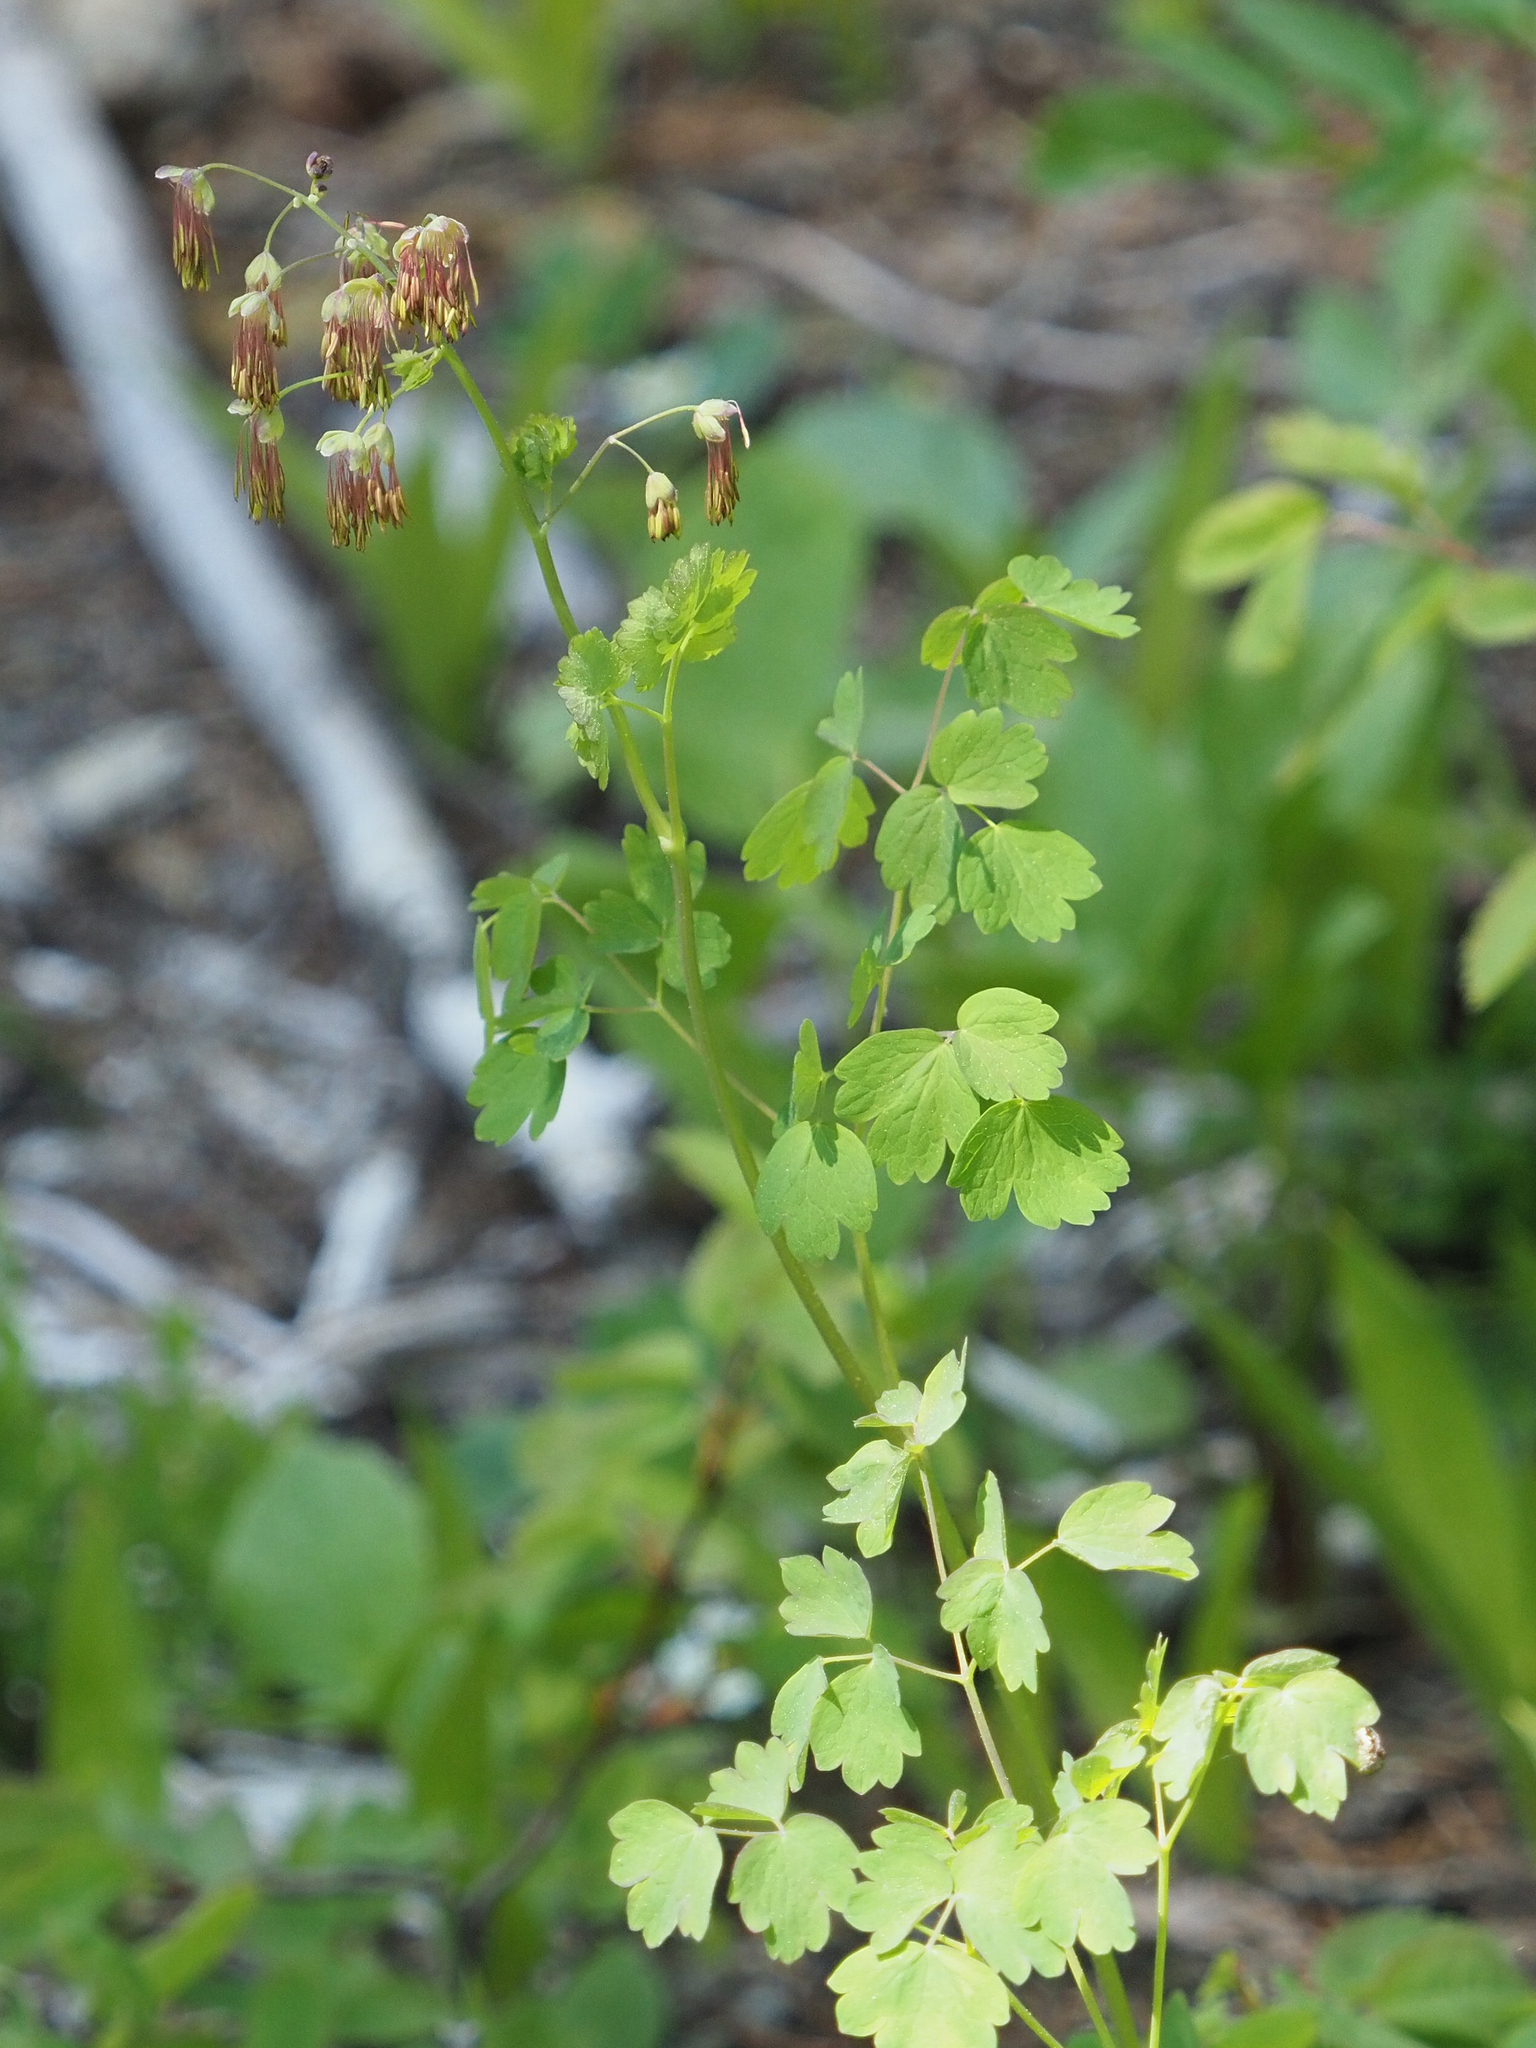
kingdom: Plantae
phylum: Tracheophyta
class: Magnoliopsida
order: Ranunculales
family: Ranunculaceae
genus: Thalictrum
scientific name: Thalictrum occidentale
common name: Western meadow-rue
